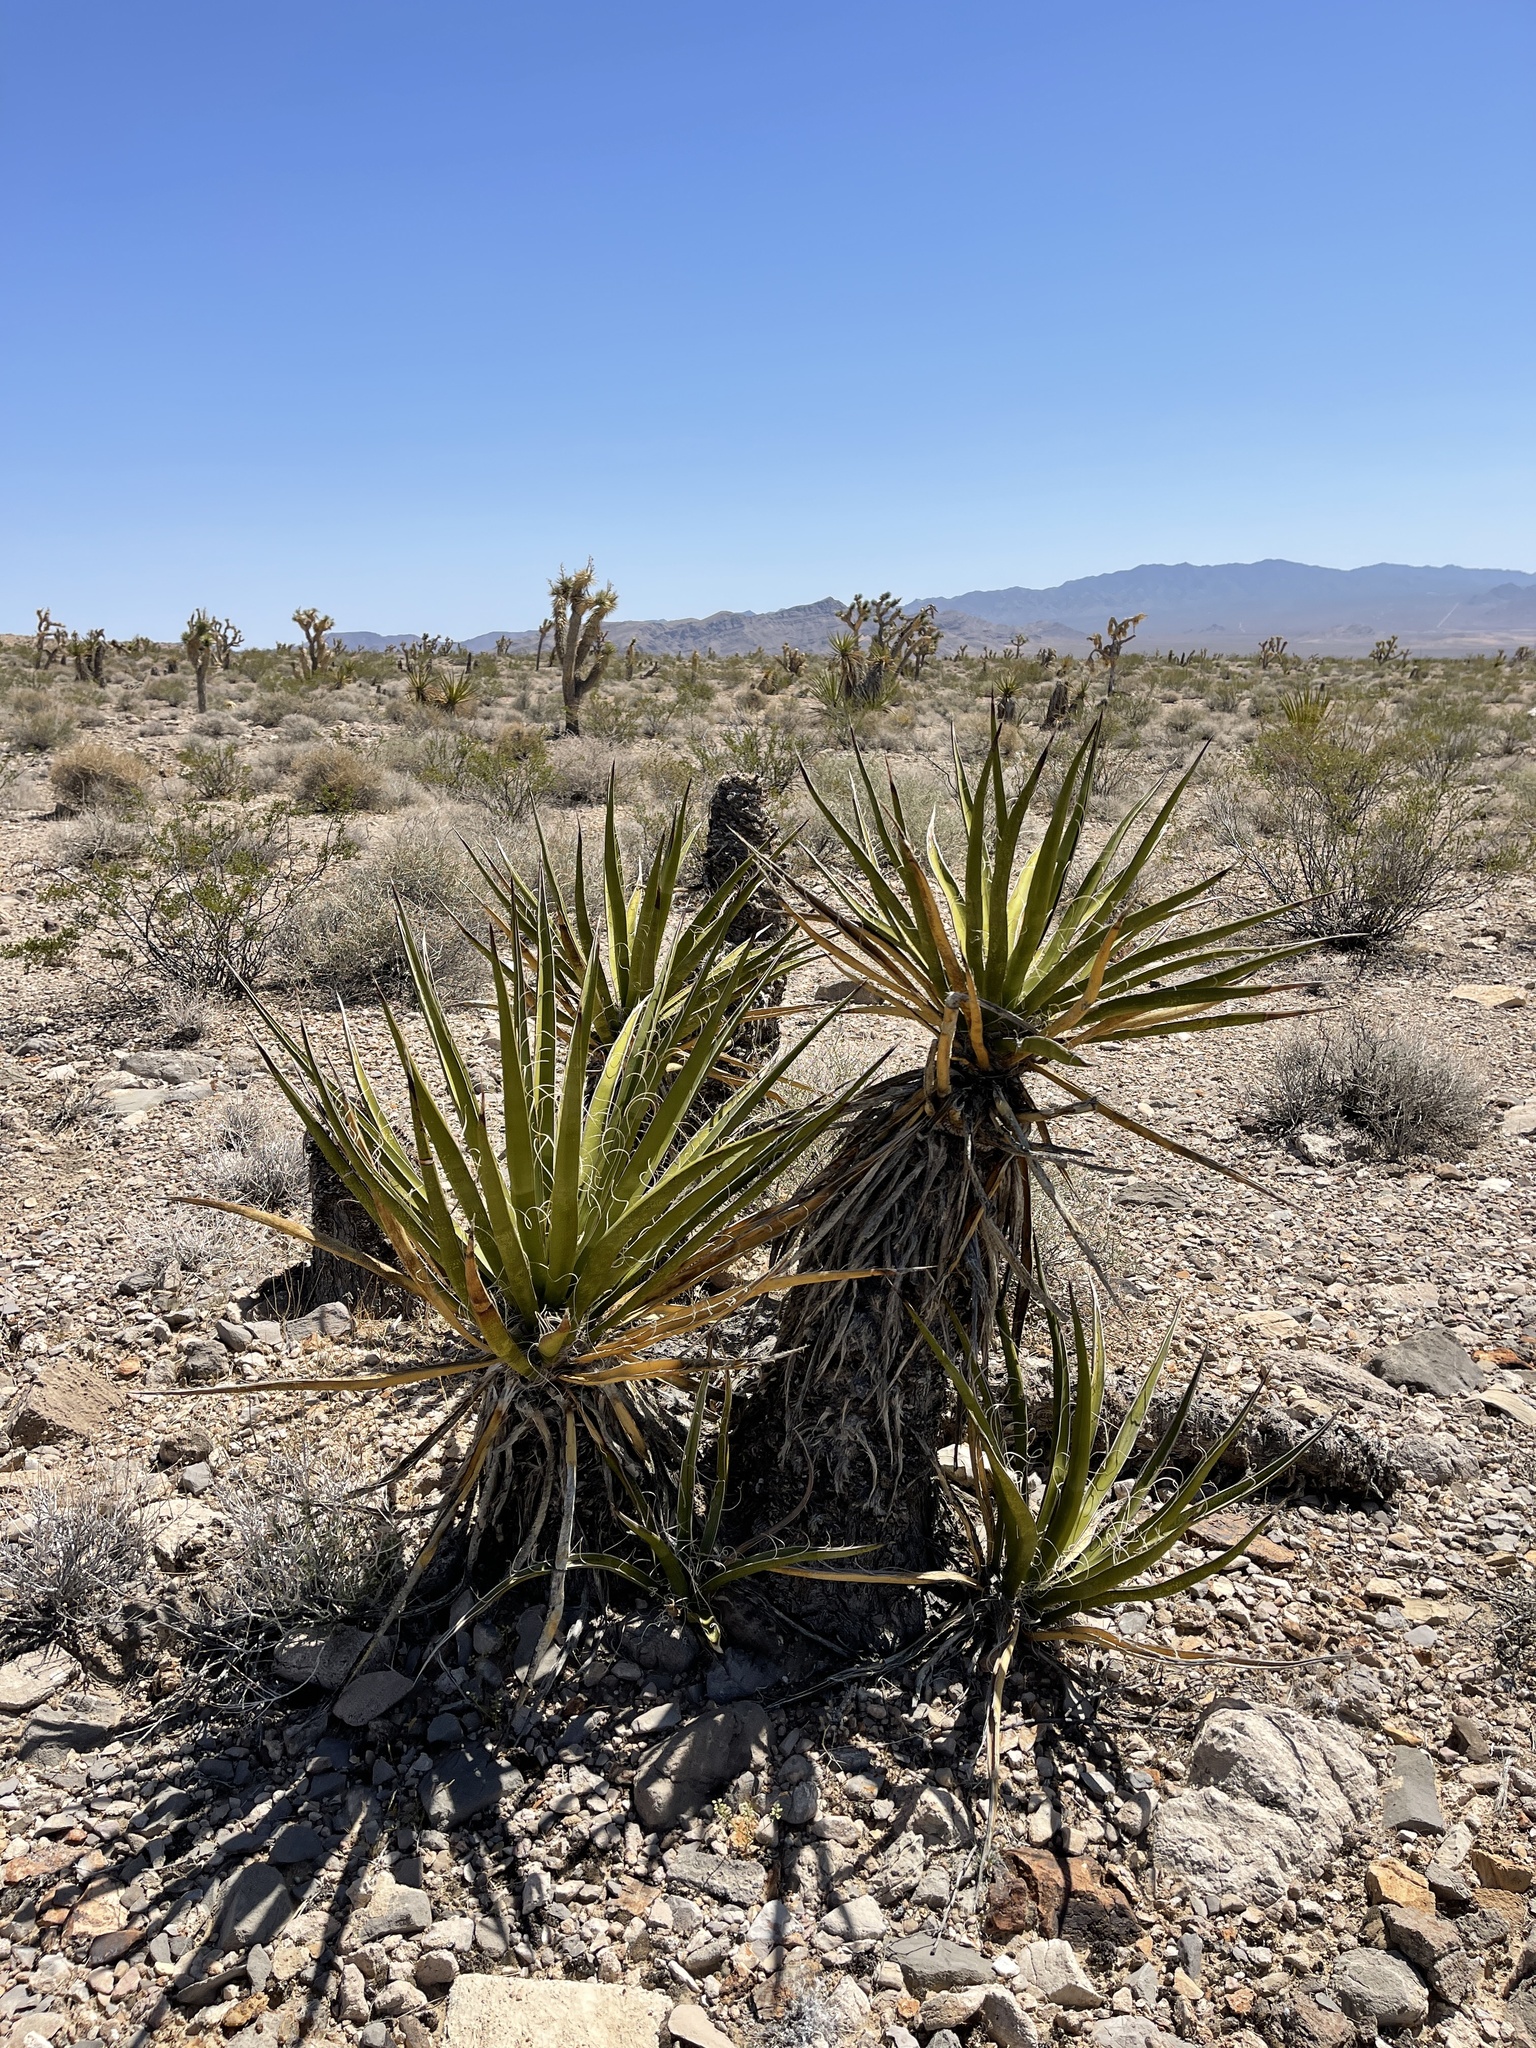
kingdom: Plantae
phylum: Tracheophyta
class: Liliopsida
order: Asparagales
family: Asparagaceae
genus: Yucca
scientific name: Yucca schidigera
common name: Mojave yucca
